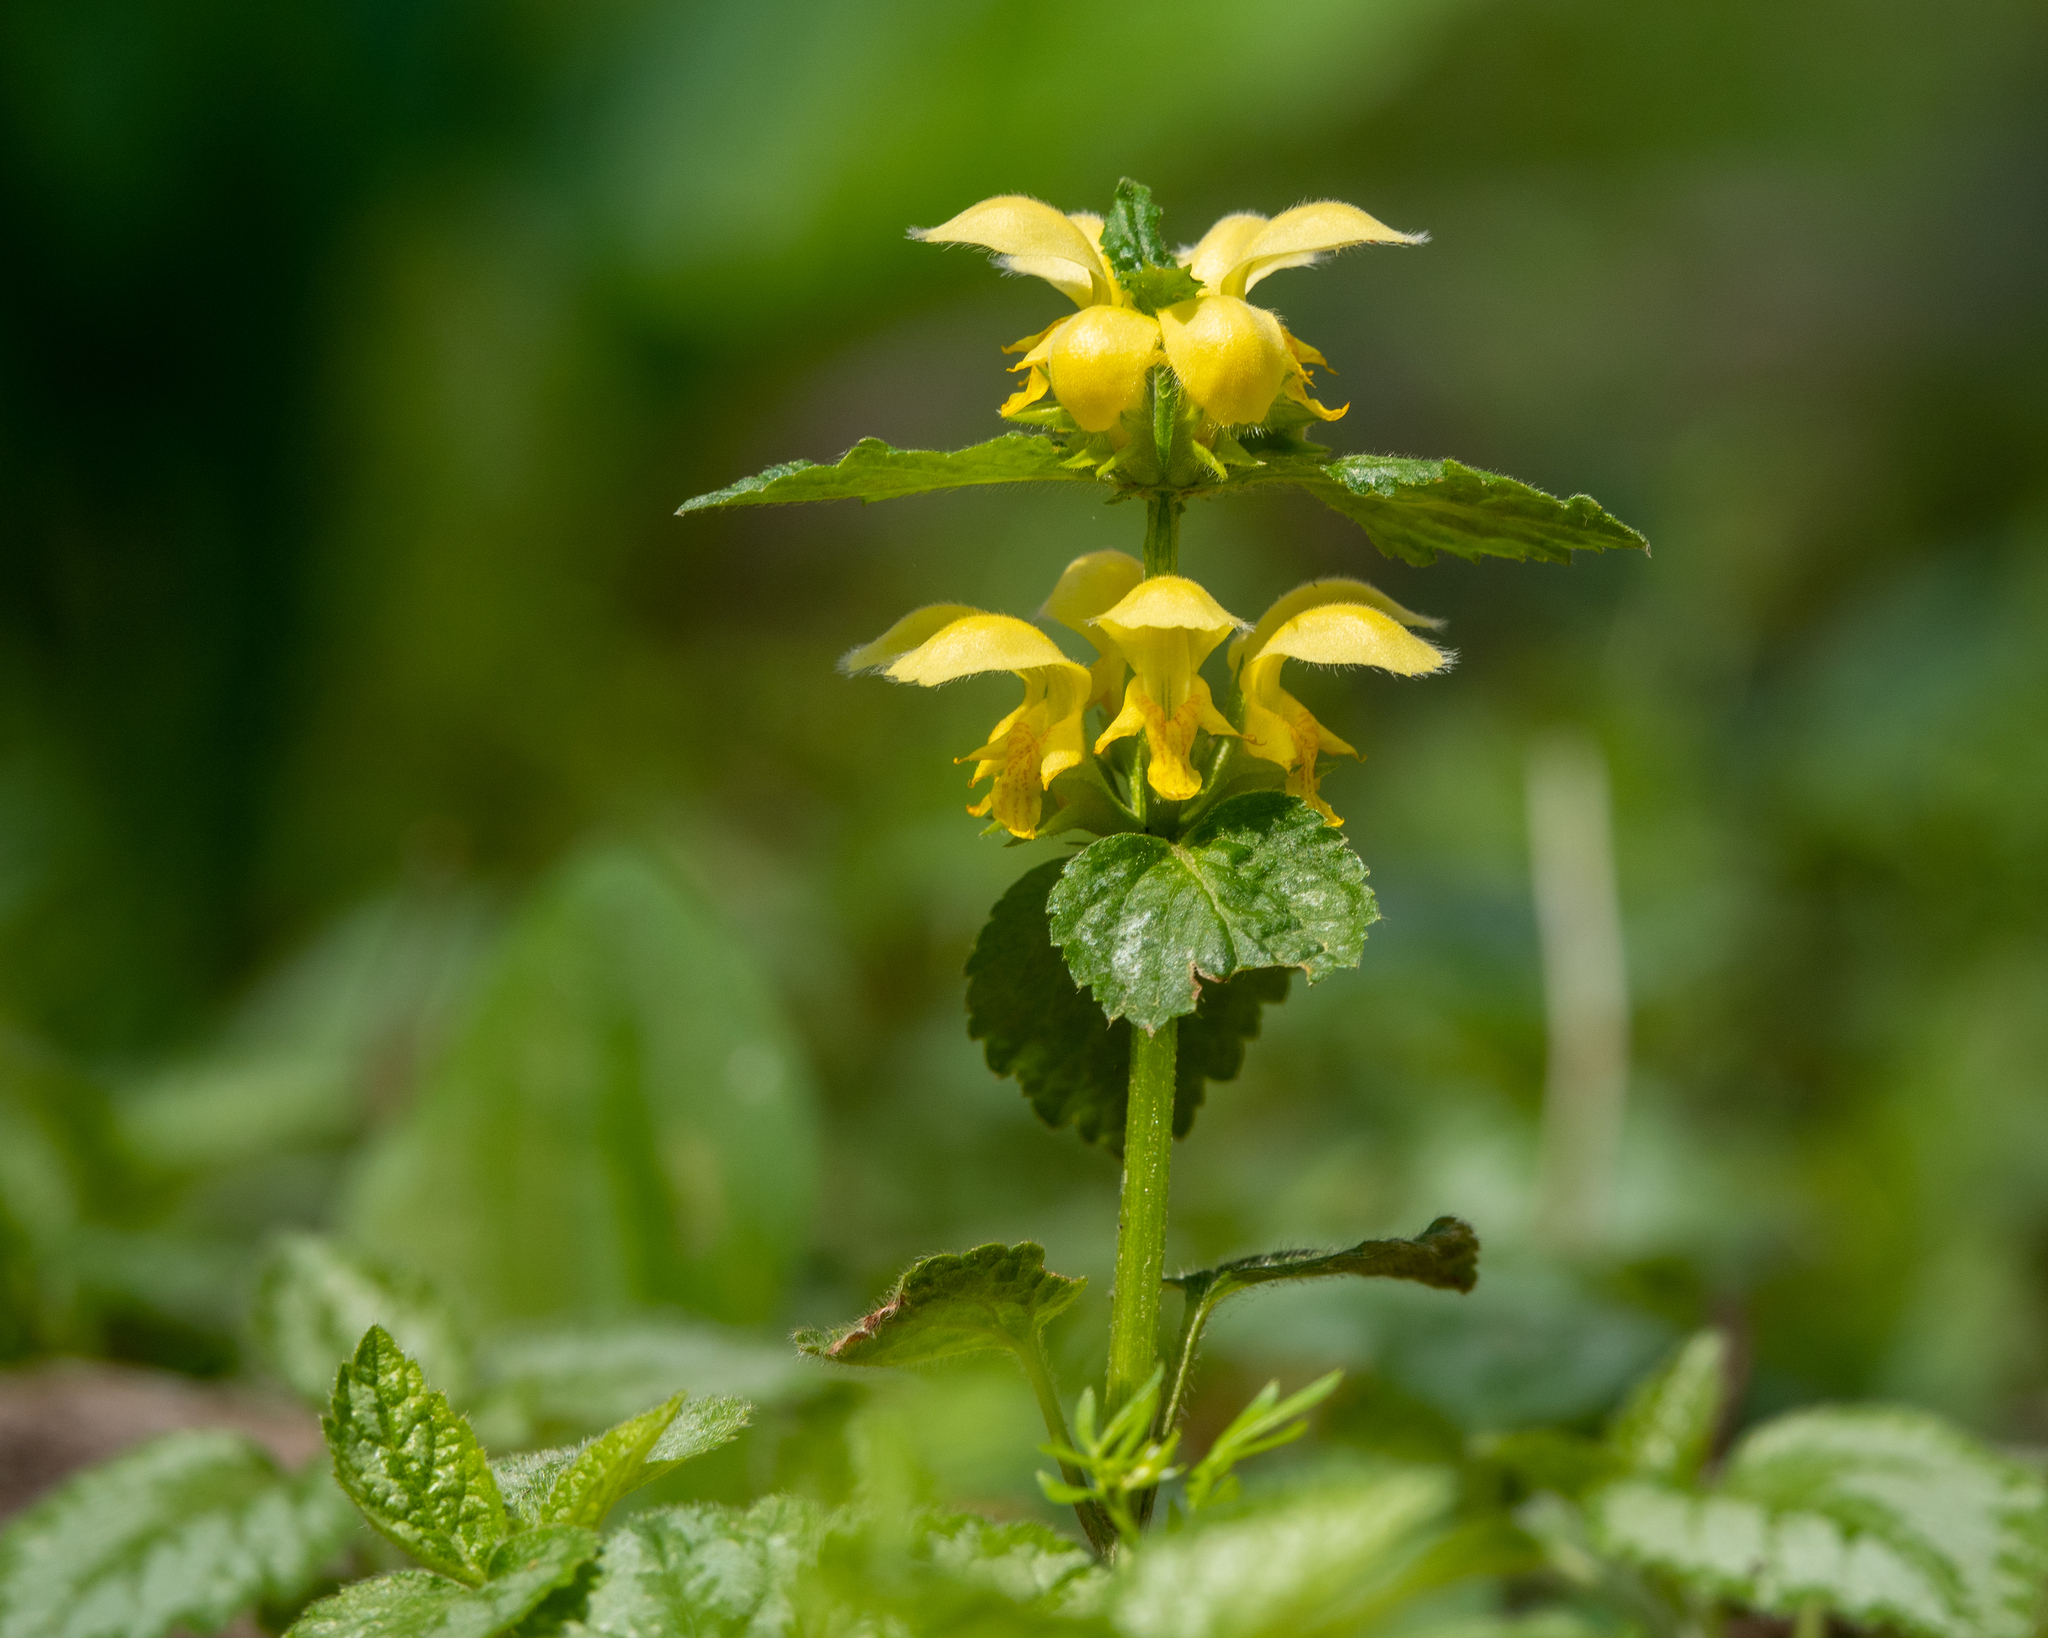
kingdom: Plantae
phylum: Tracheophyta
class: Magnoliopsida
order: Lamiales
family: Lamiaceae
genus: Lamium
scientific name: Lamium galeobdolon
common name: Yellow archangel
